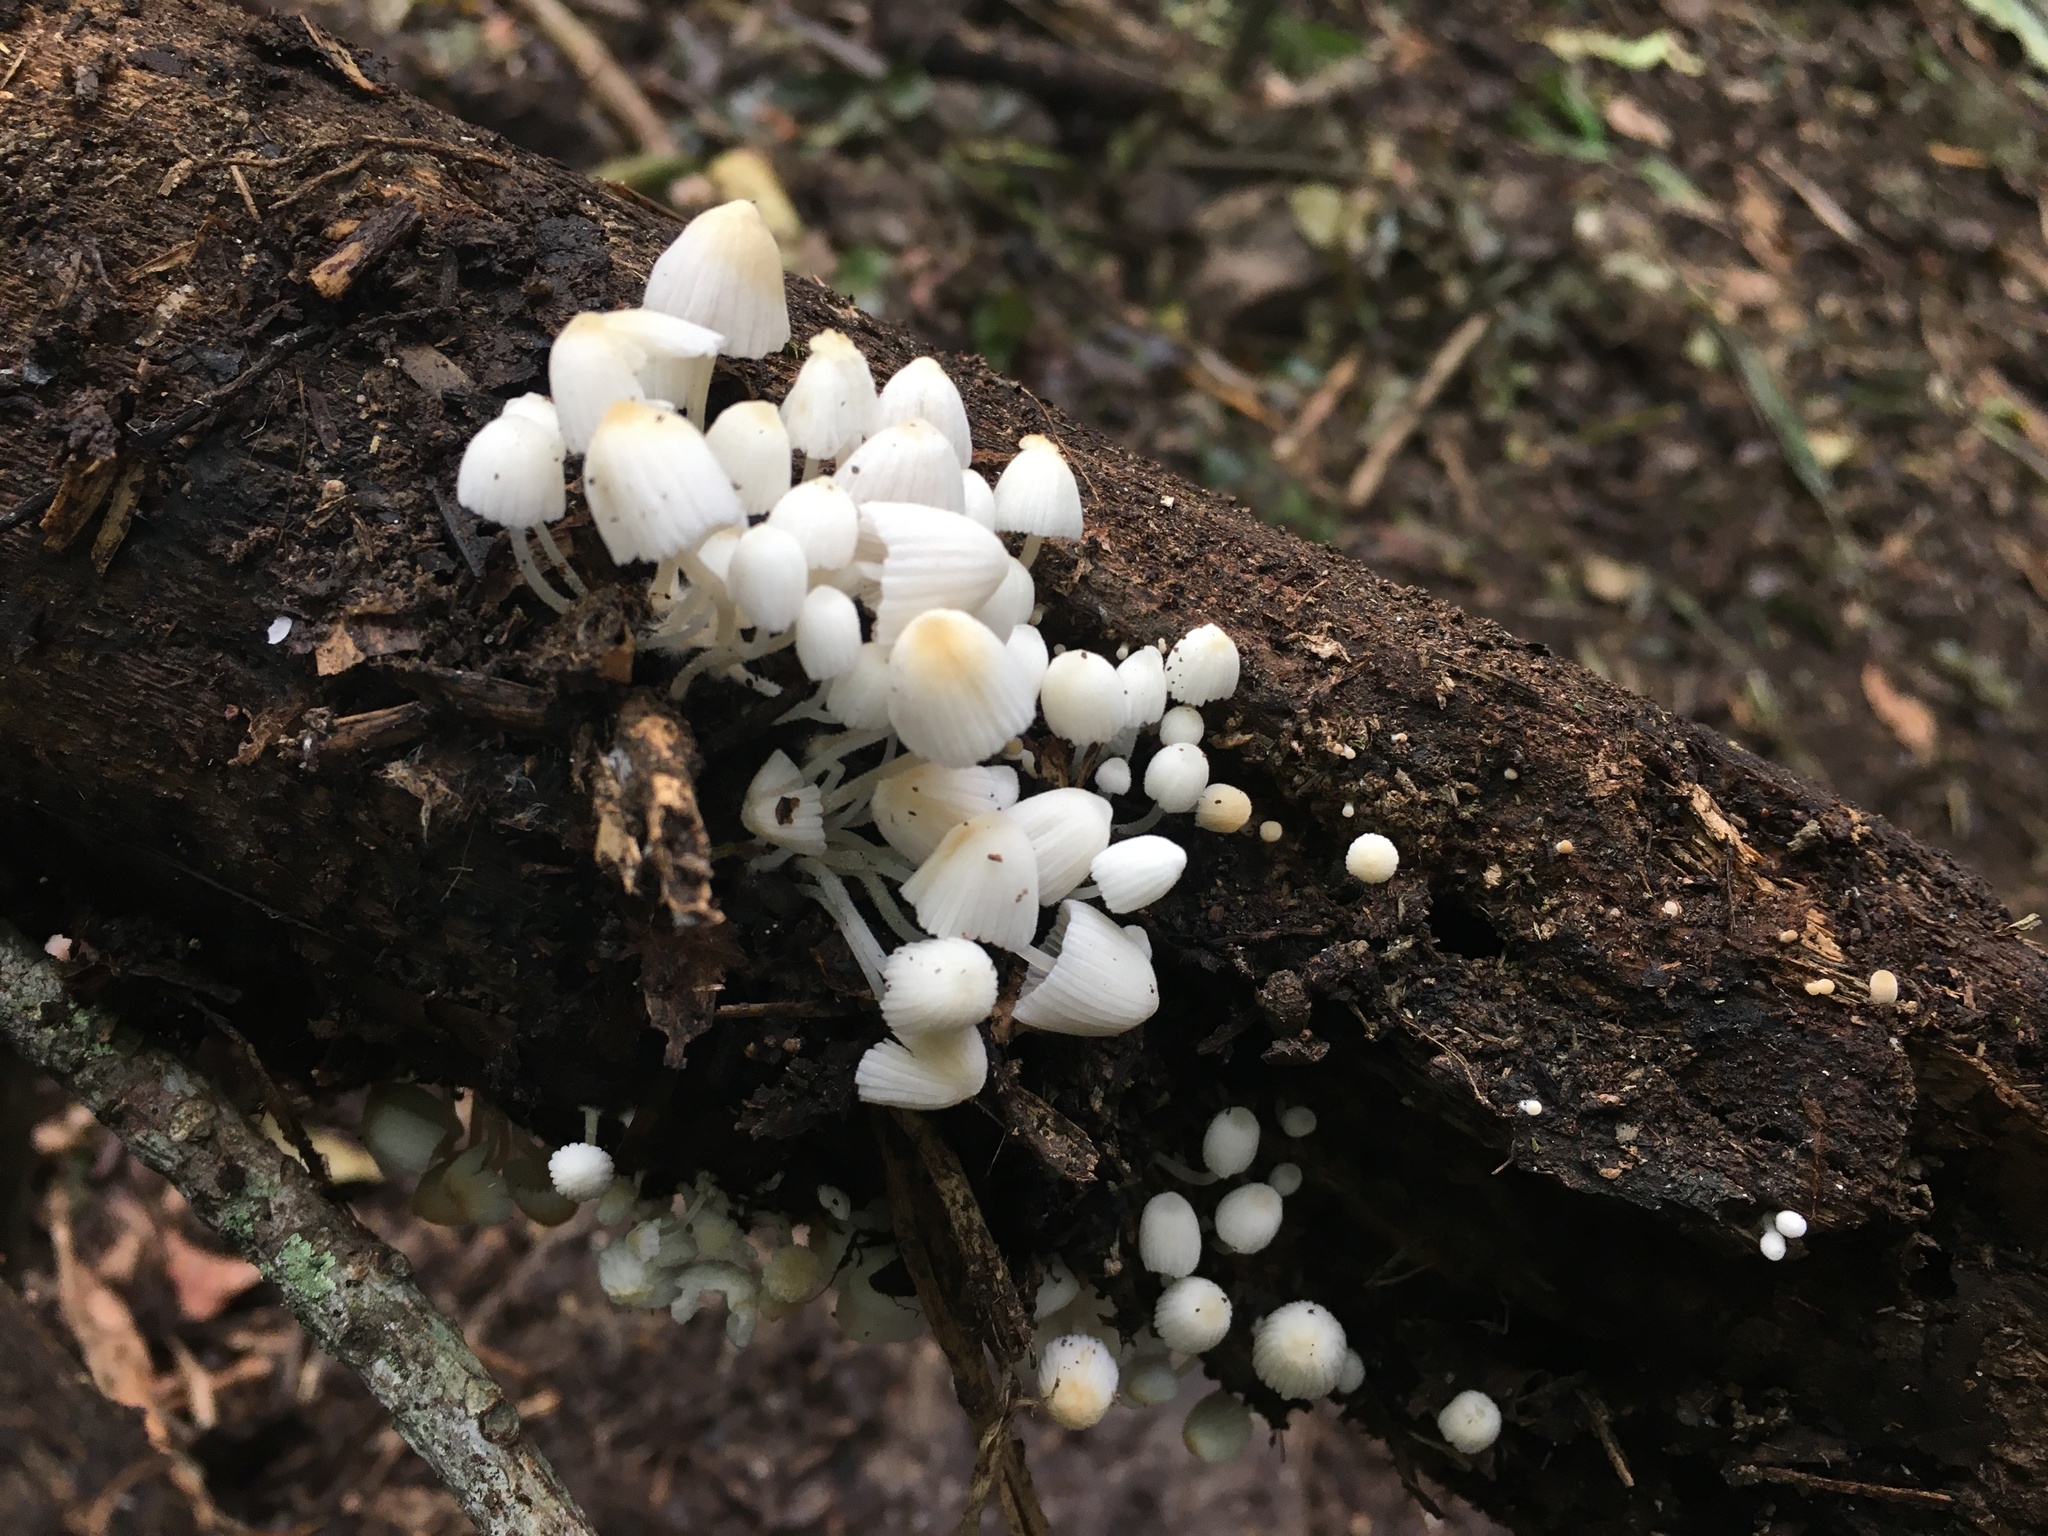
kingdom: Fungi
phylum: Basidiomycota
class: Agaricomycetes
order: Agaricales
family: Psathyrellaceae
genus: Coprinellus
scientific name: Coprinellus disseminatus
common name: Fairies' bonnets
